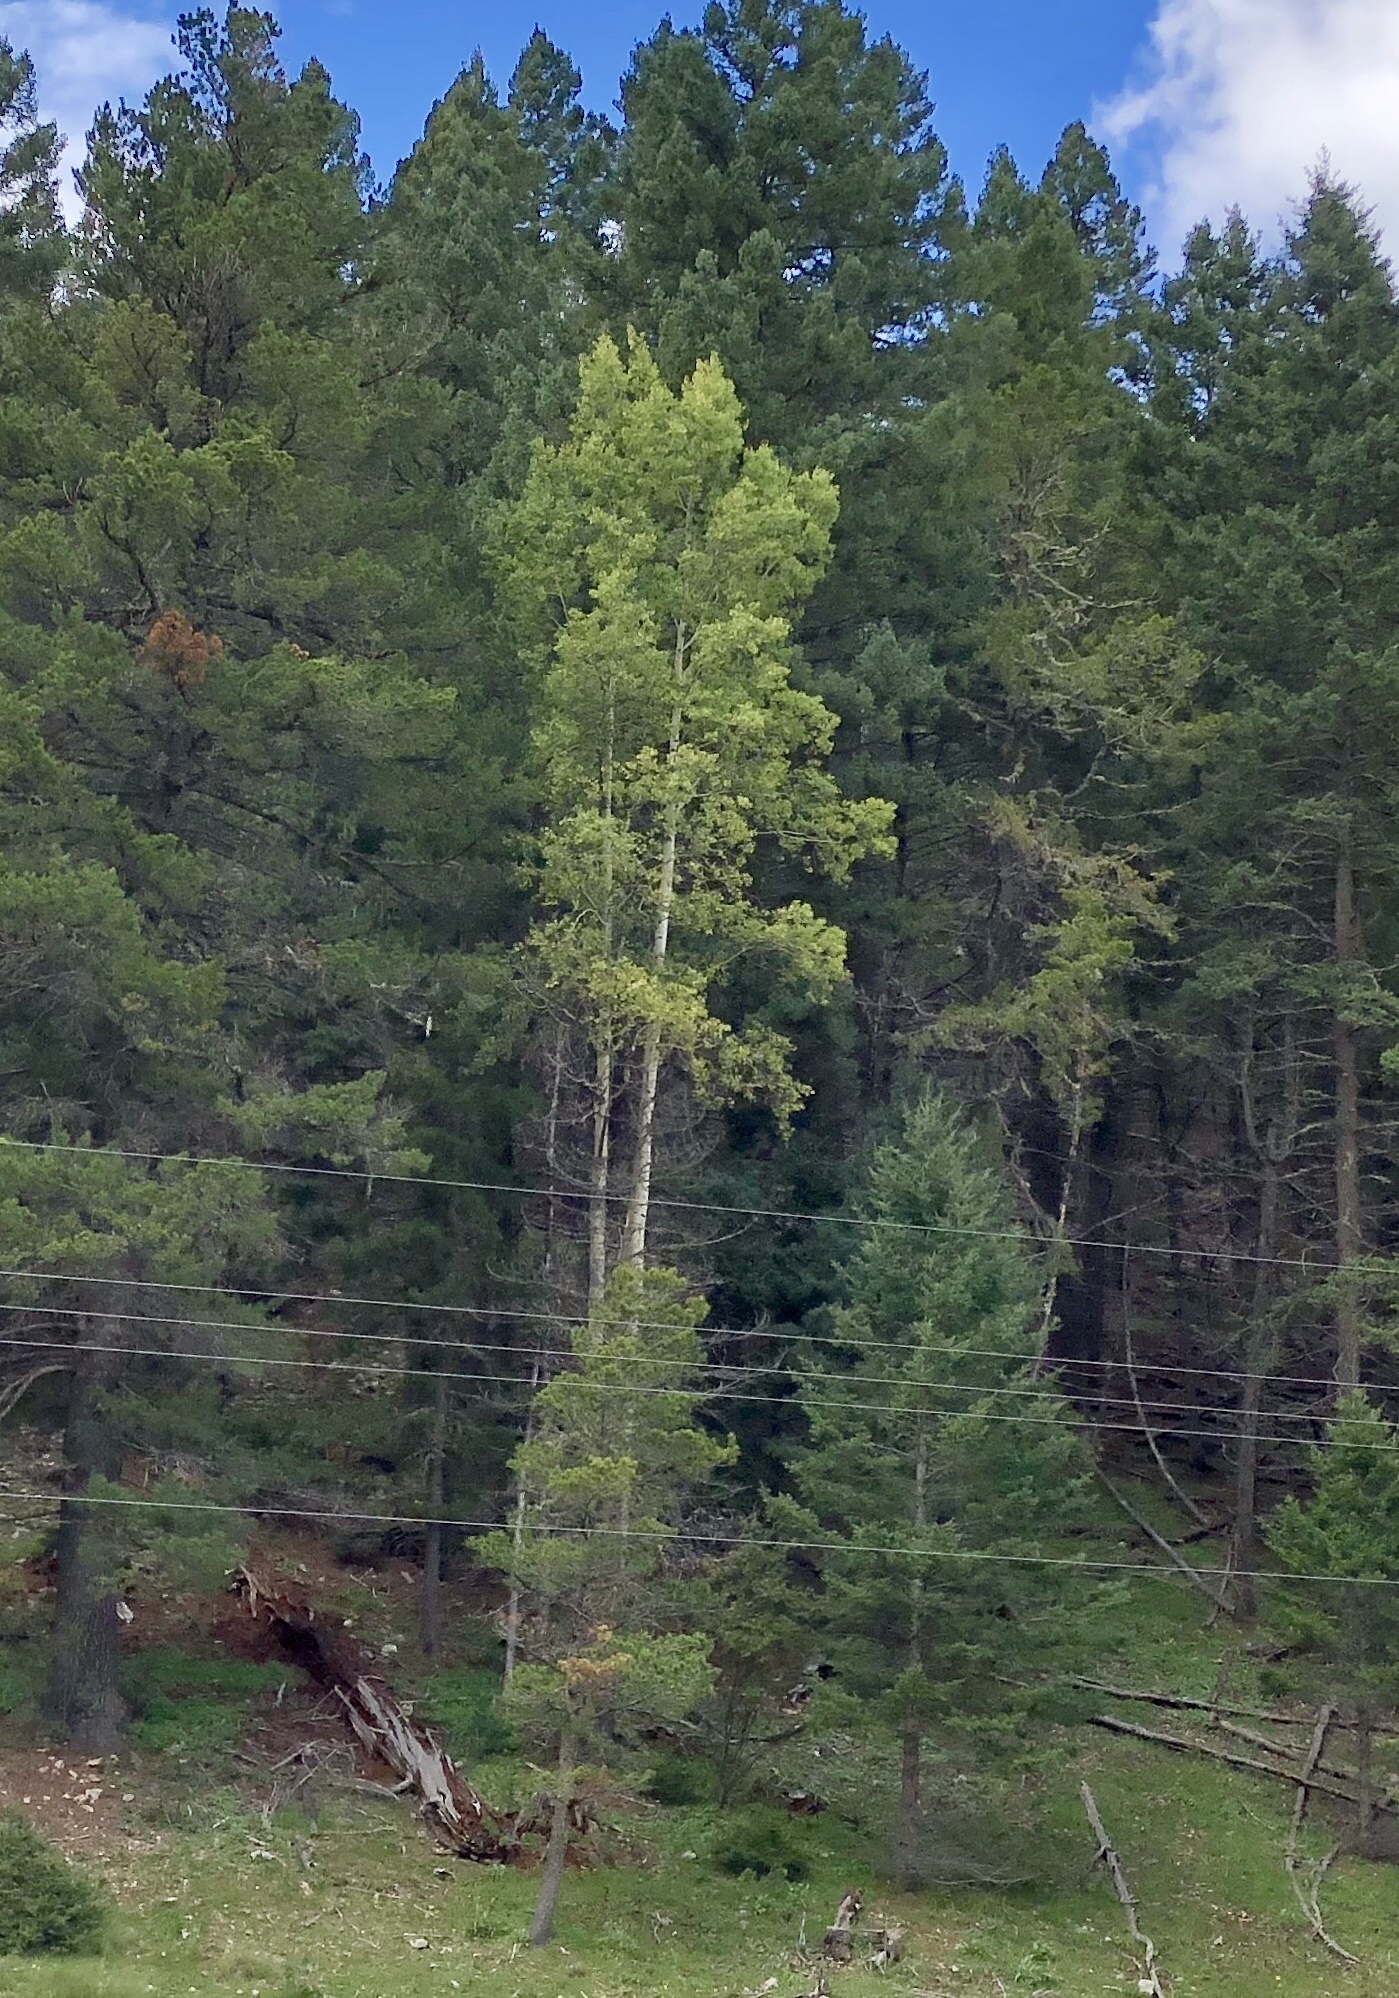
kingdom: Plantae
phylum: Tracheophyta
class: Magnoliopsida
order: Malpighiales
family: Salicaceae
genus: Populus
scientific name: Populus tremuloides
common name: Quaking aspen
